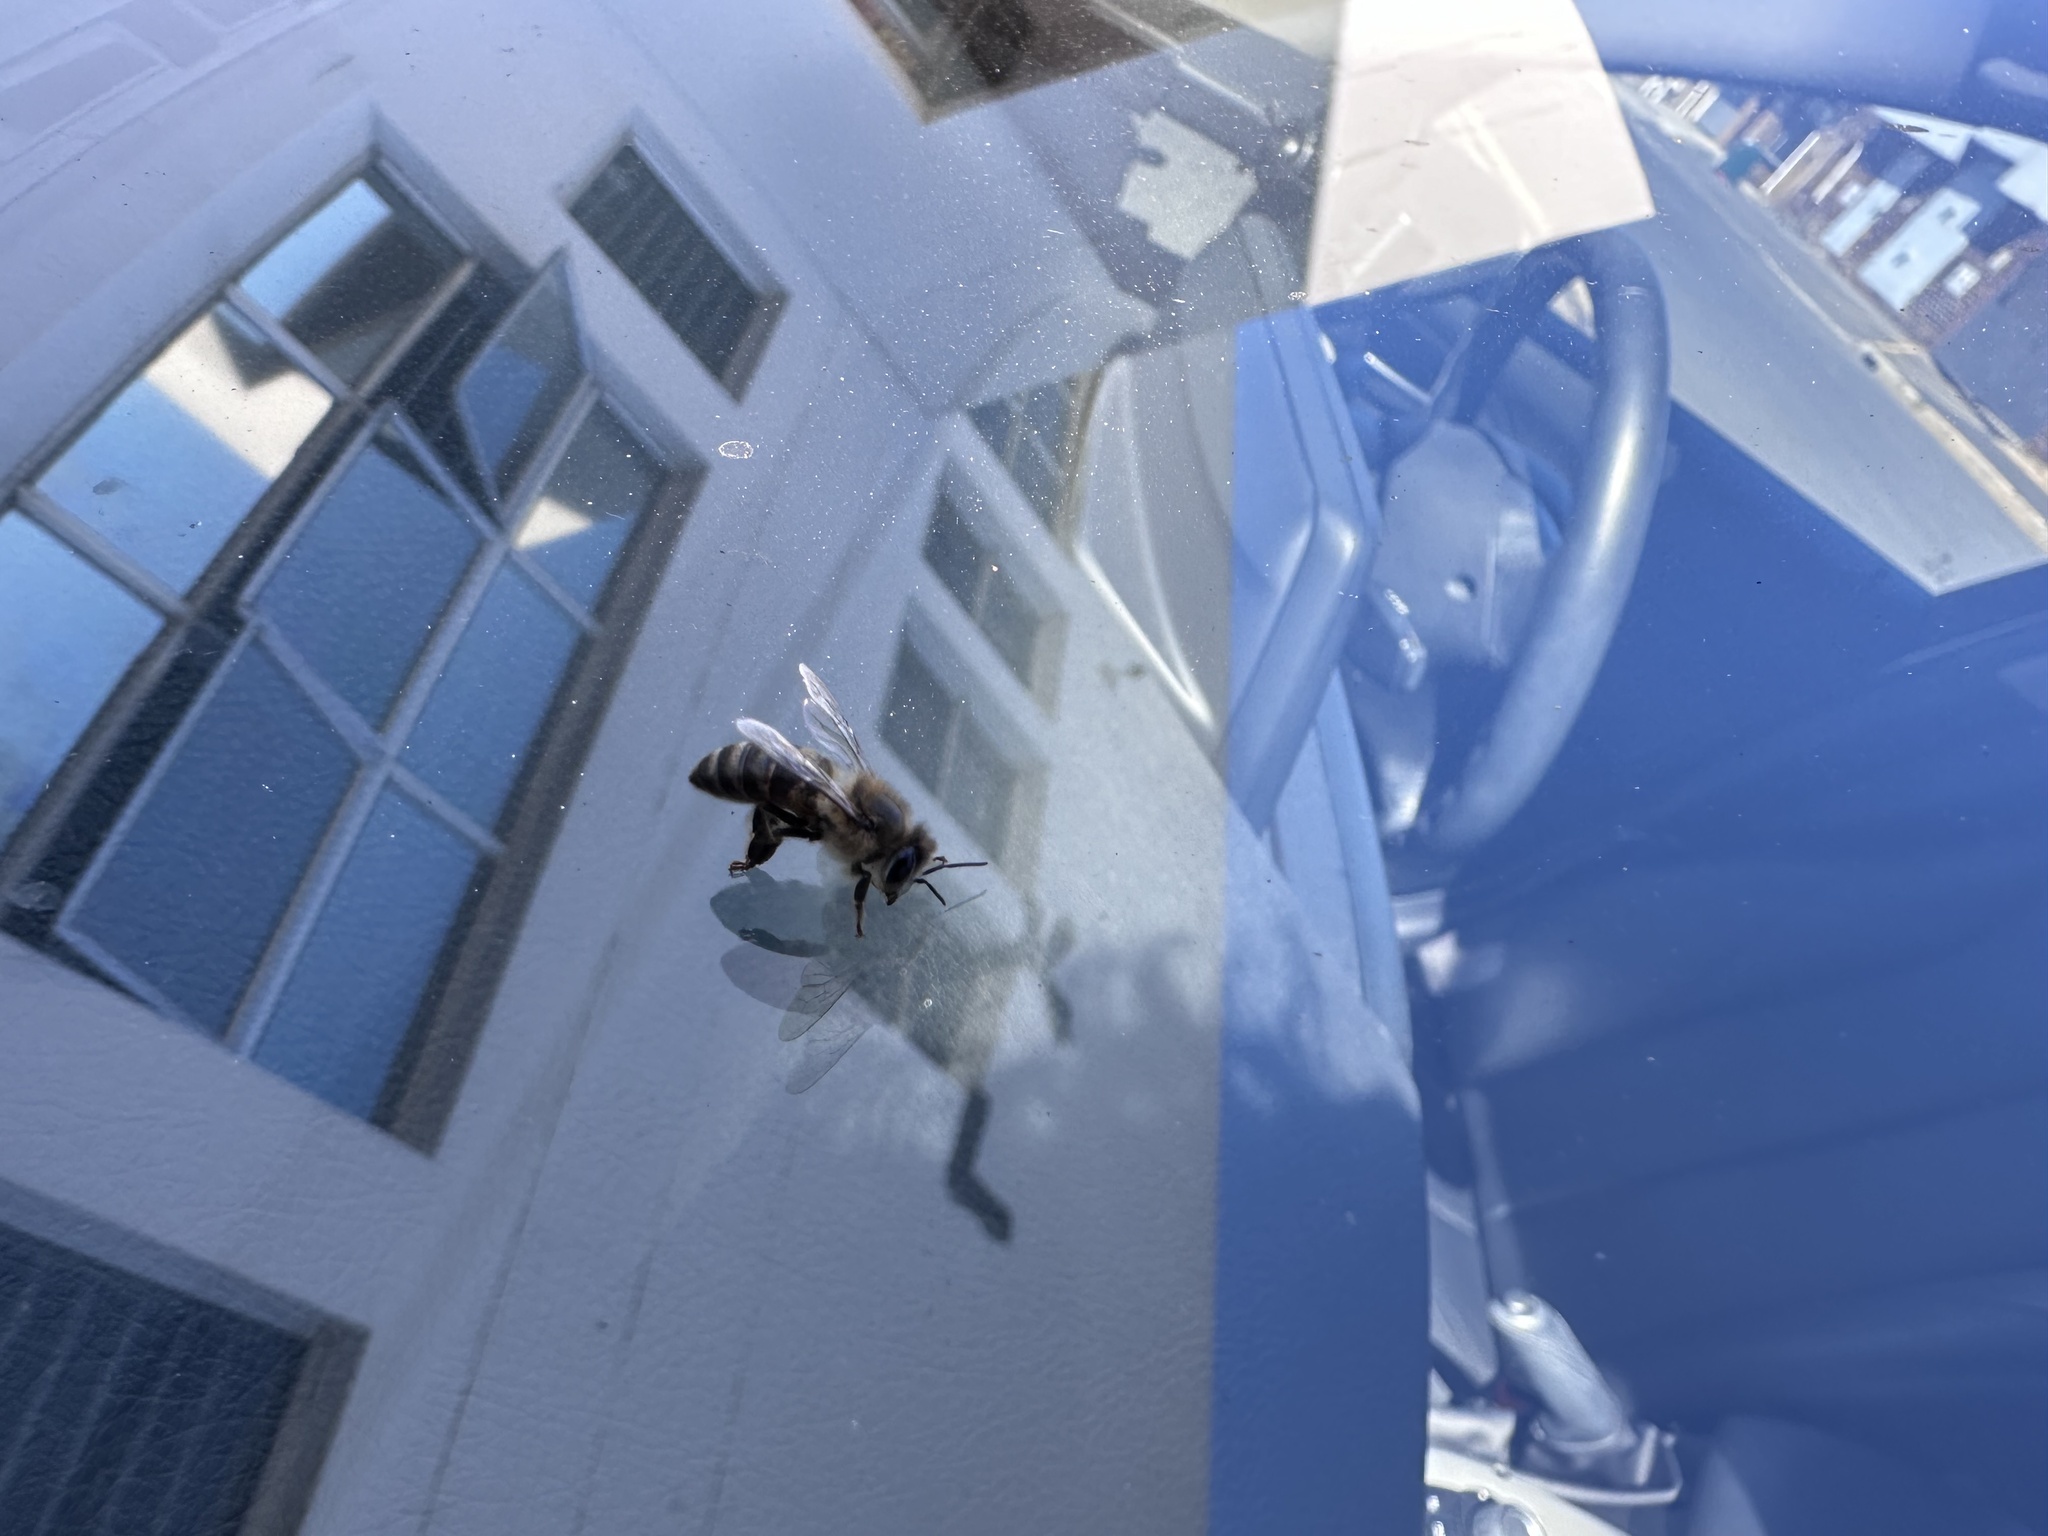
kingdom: Animalia
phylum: Arthropoda
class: Insecta
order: Hymenoptera
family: Apidae
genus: Apis
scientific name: Apis mellifera
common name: Honey bee
